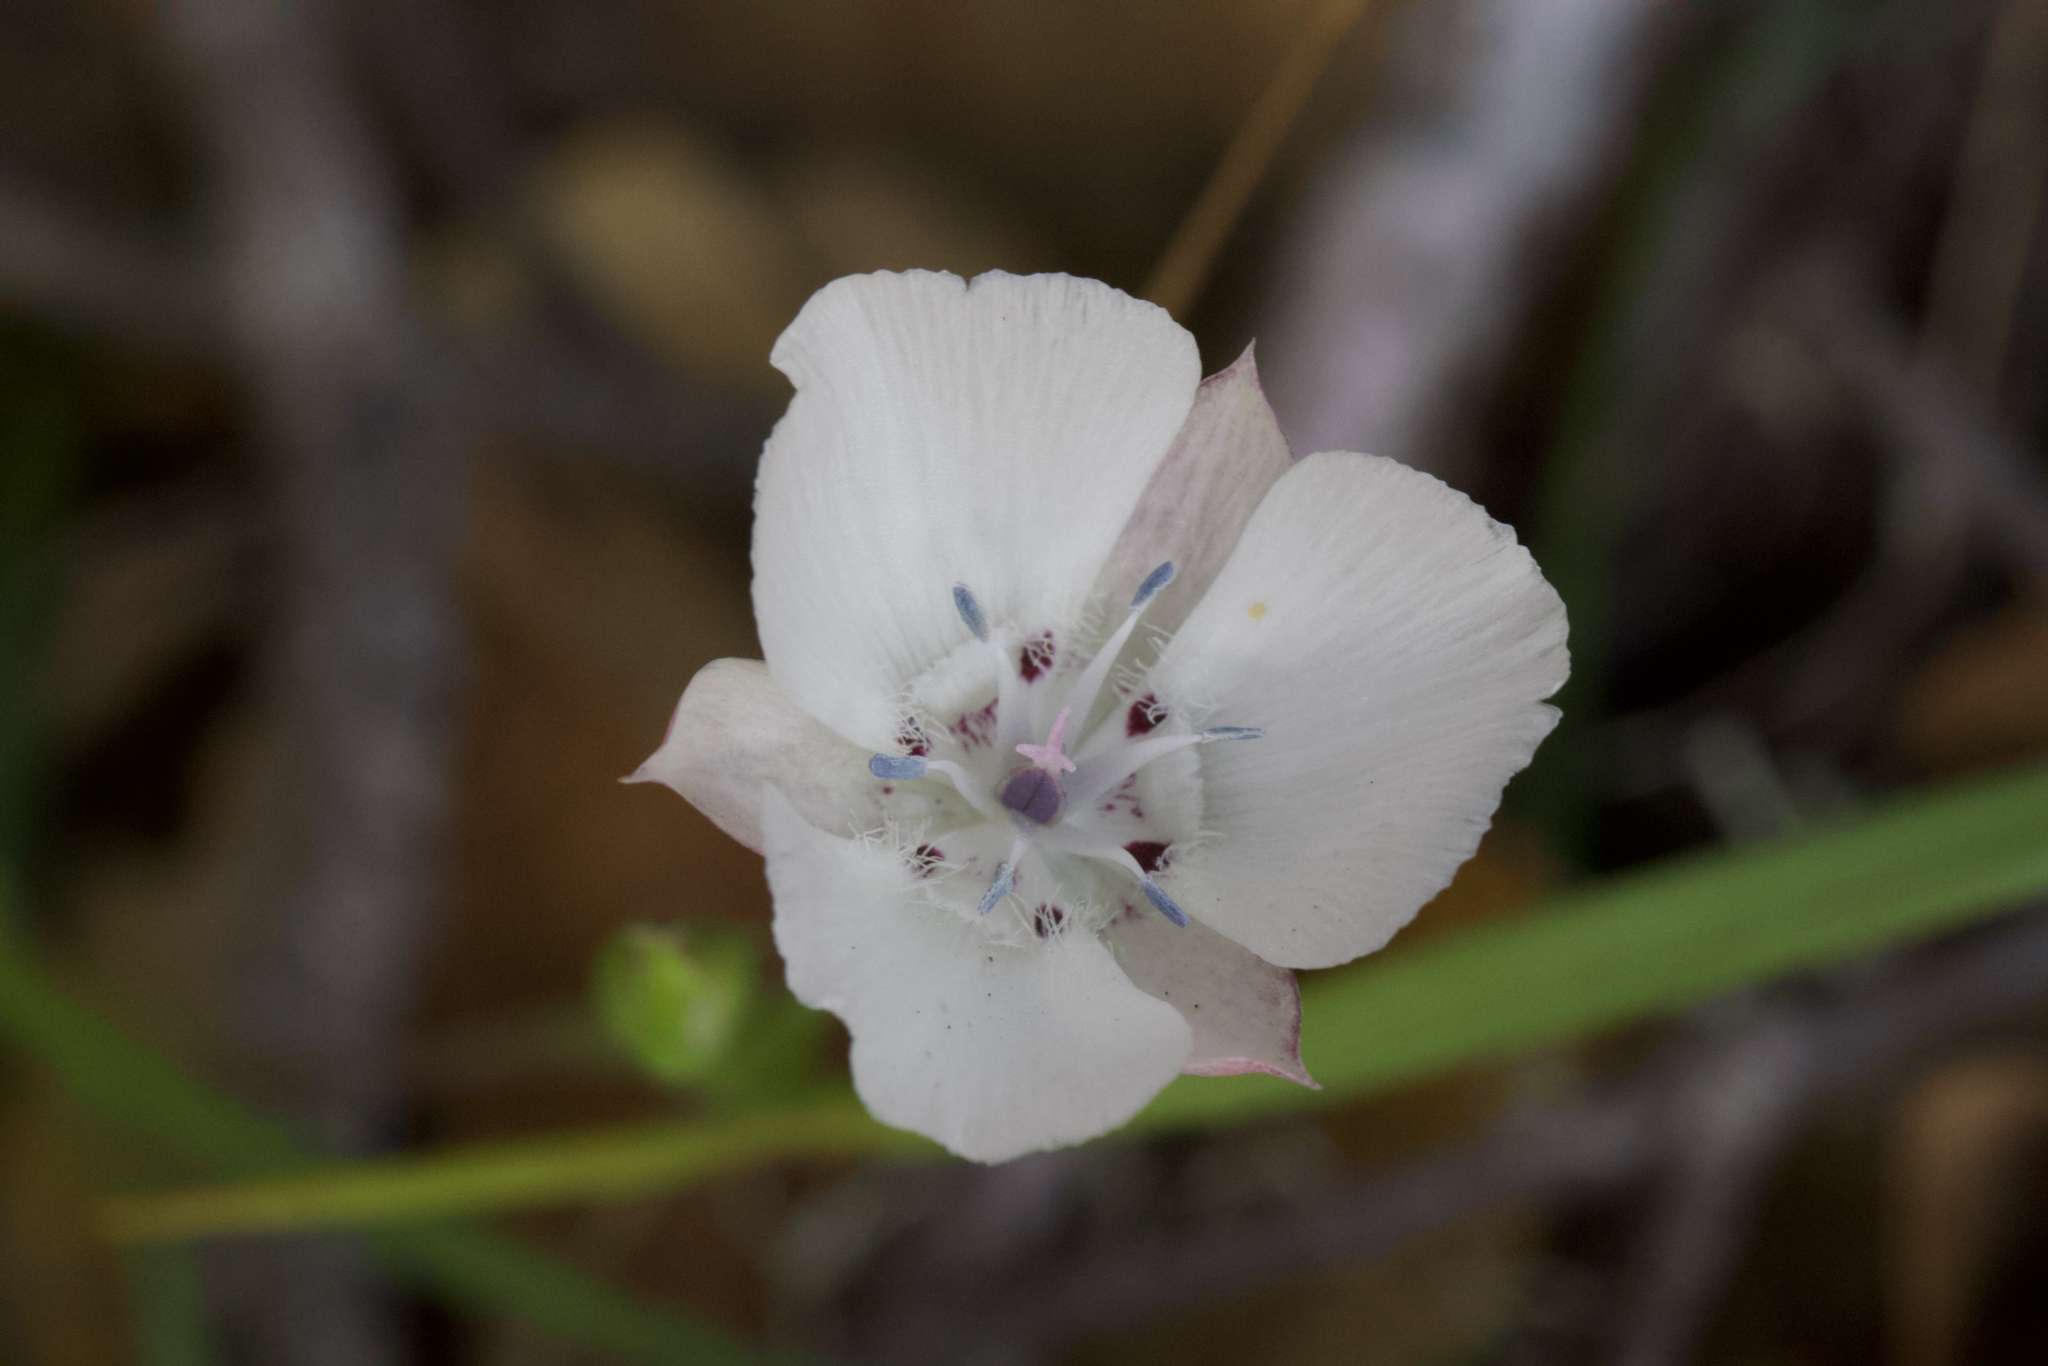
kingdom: Plantae
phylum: Tracheophyta
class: Liliopsida
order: Liliales
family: Liliaceae
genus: Calochortus
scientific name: Calochortus umbellatus
